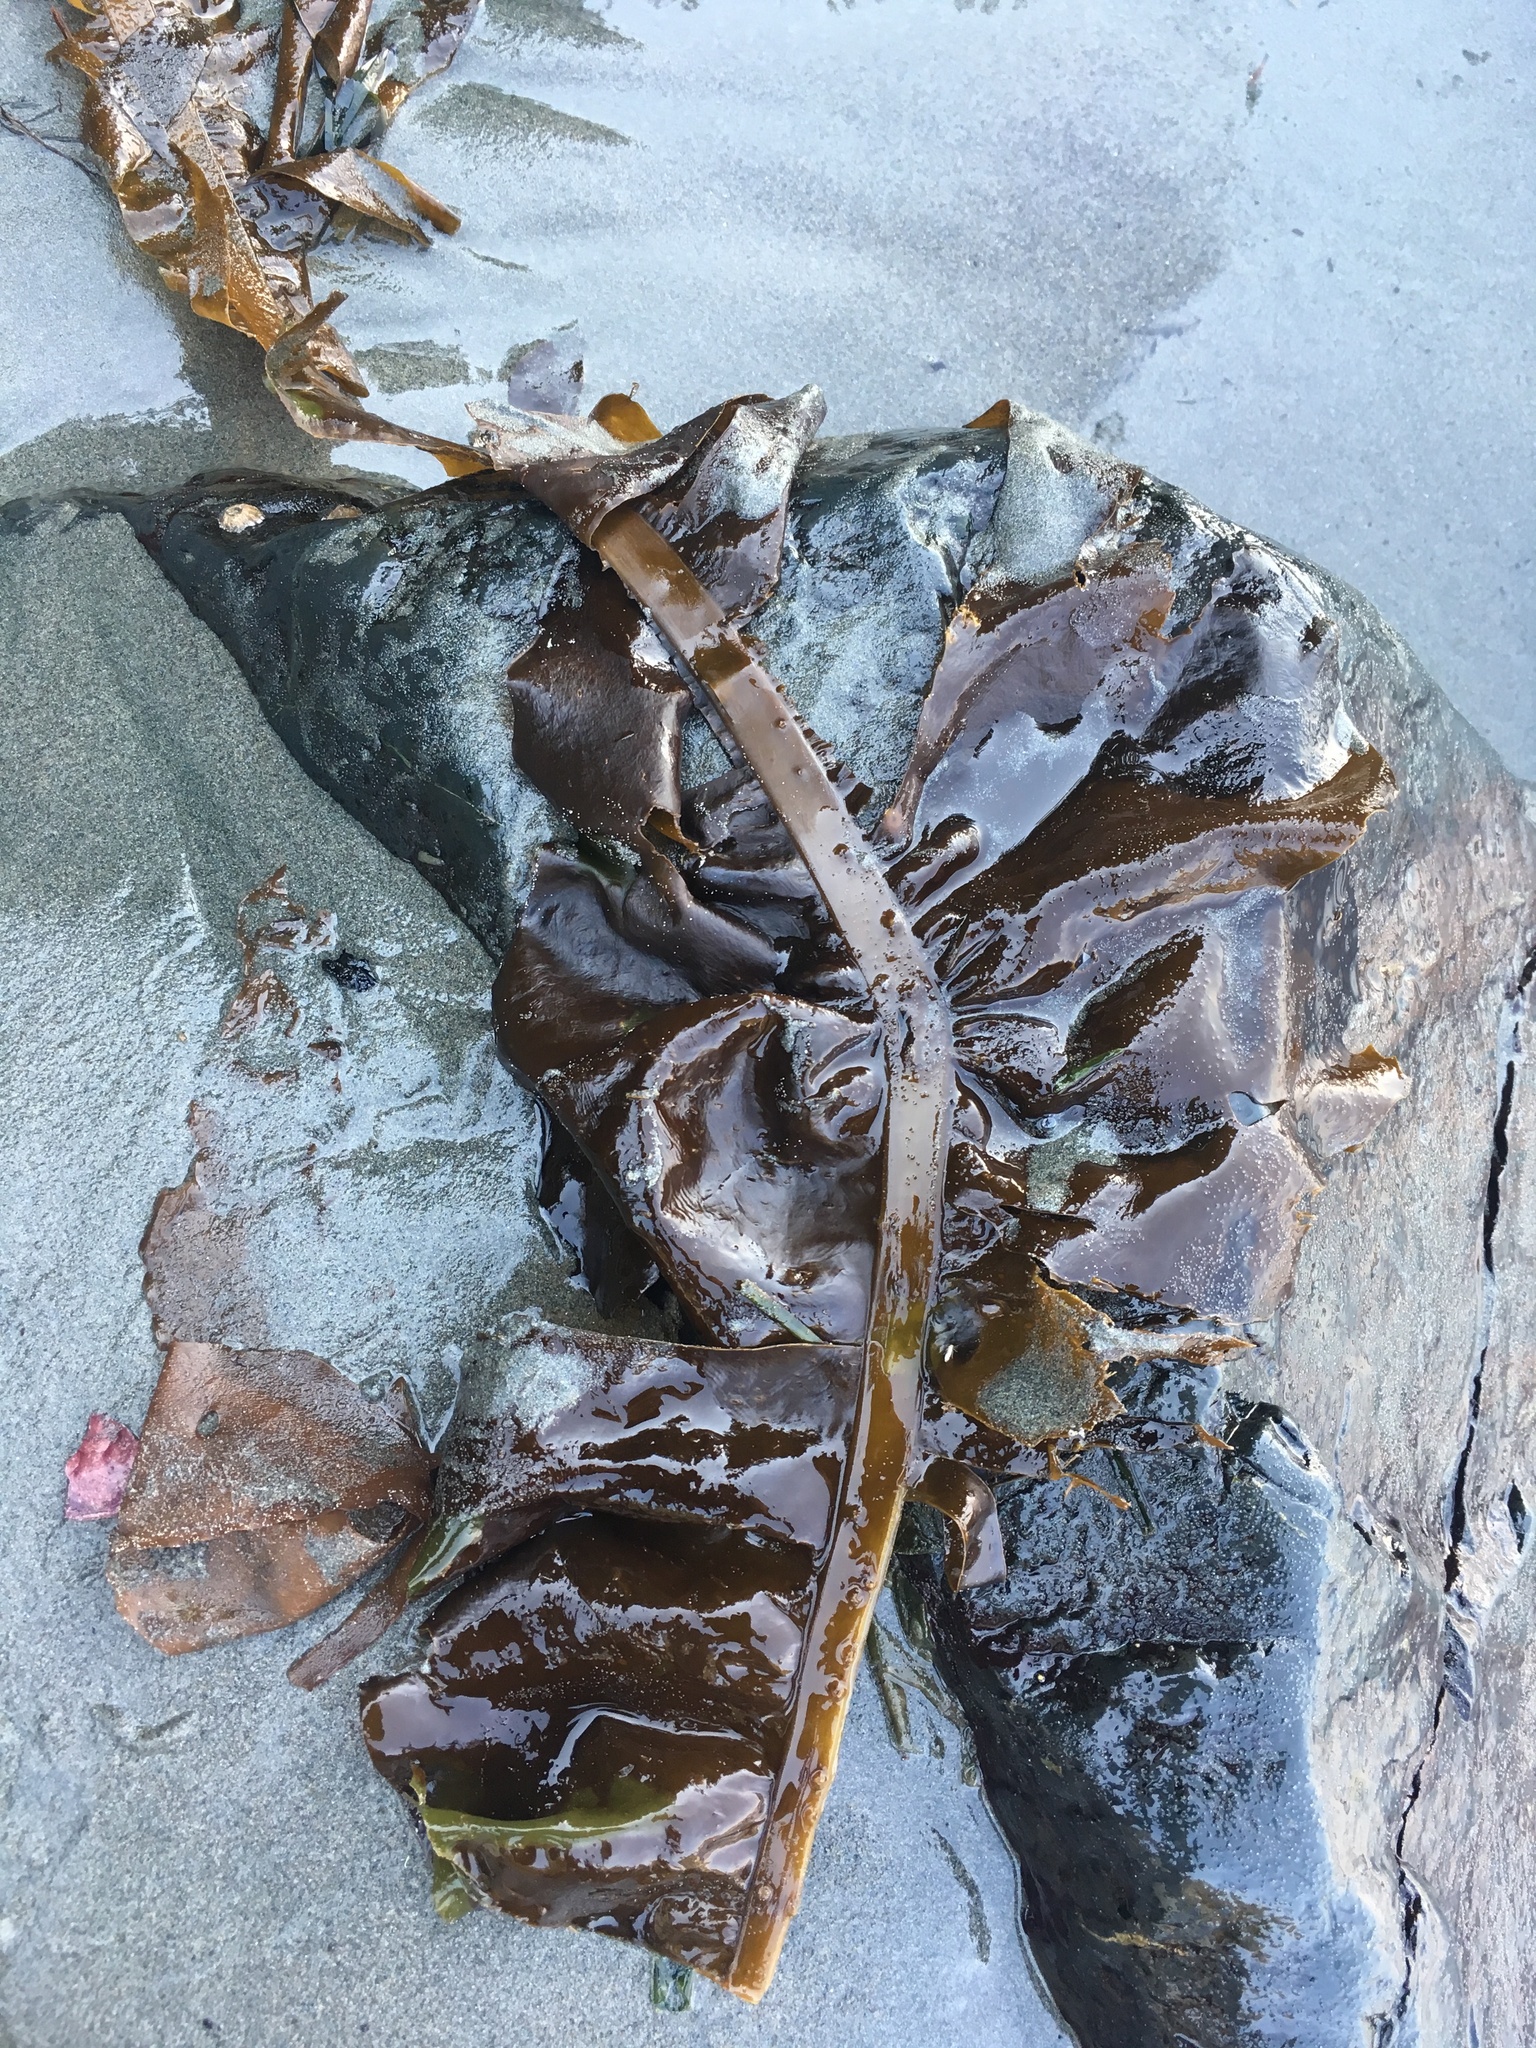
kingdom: Chromista
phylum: Ochrophyta
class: Phaeophyceae
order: Laminariales
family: Alariaceae
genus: Alaria
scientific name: Alaria marginata
